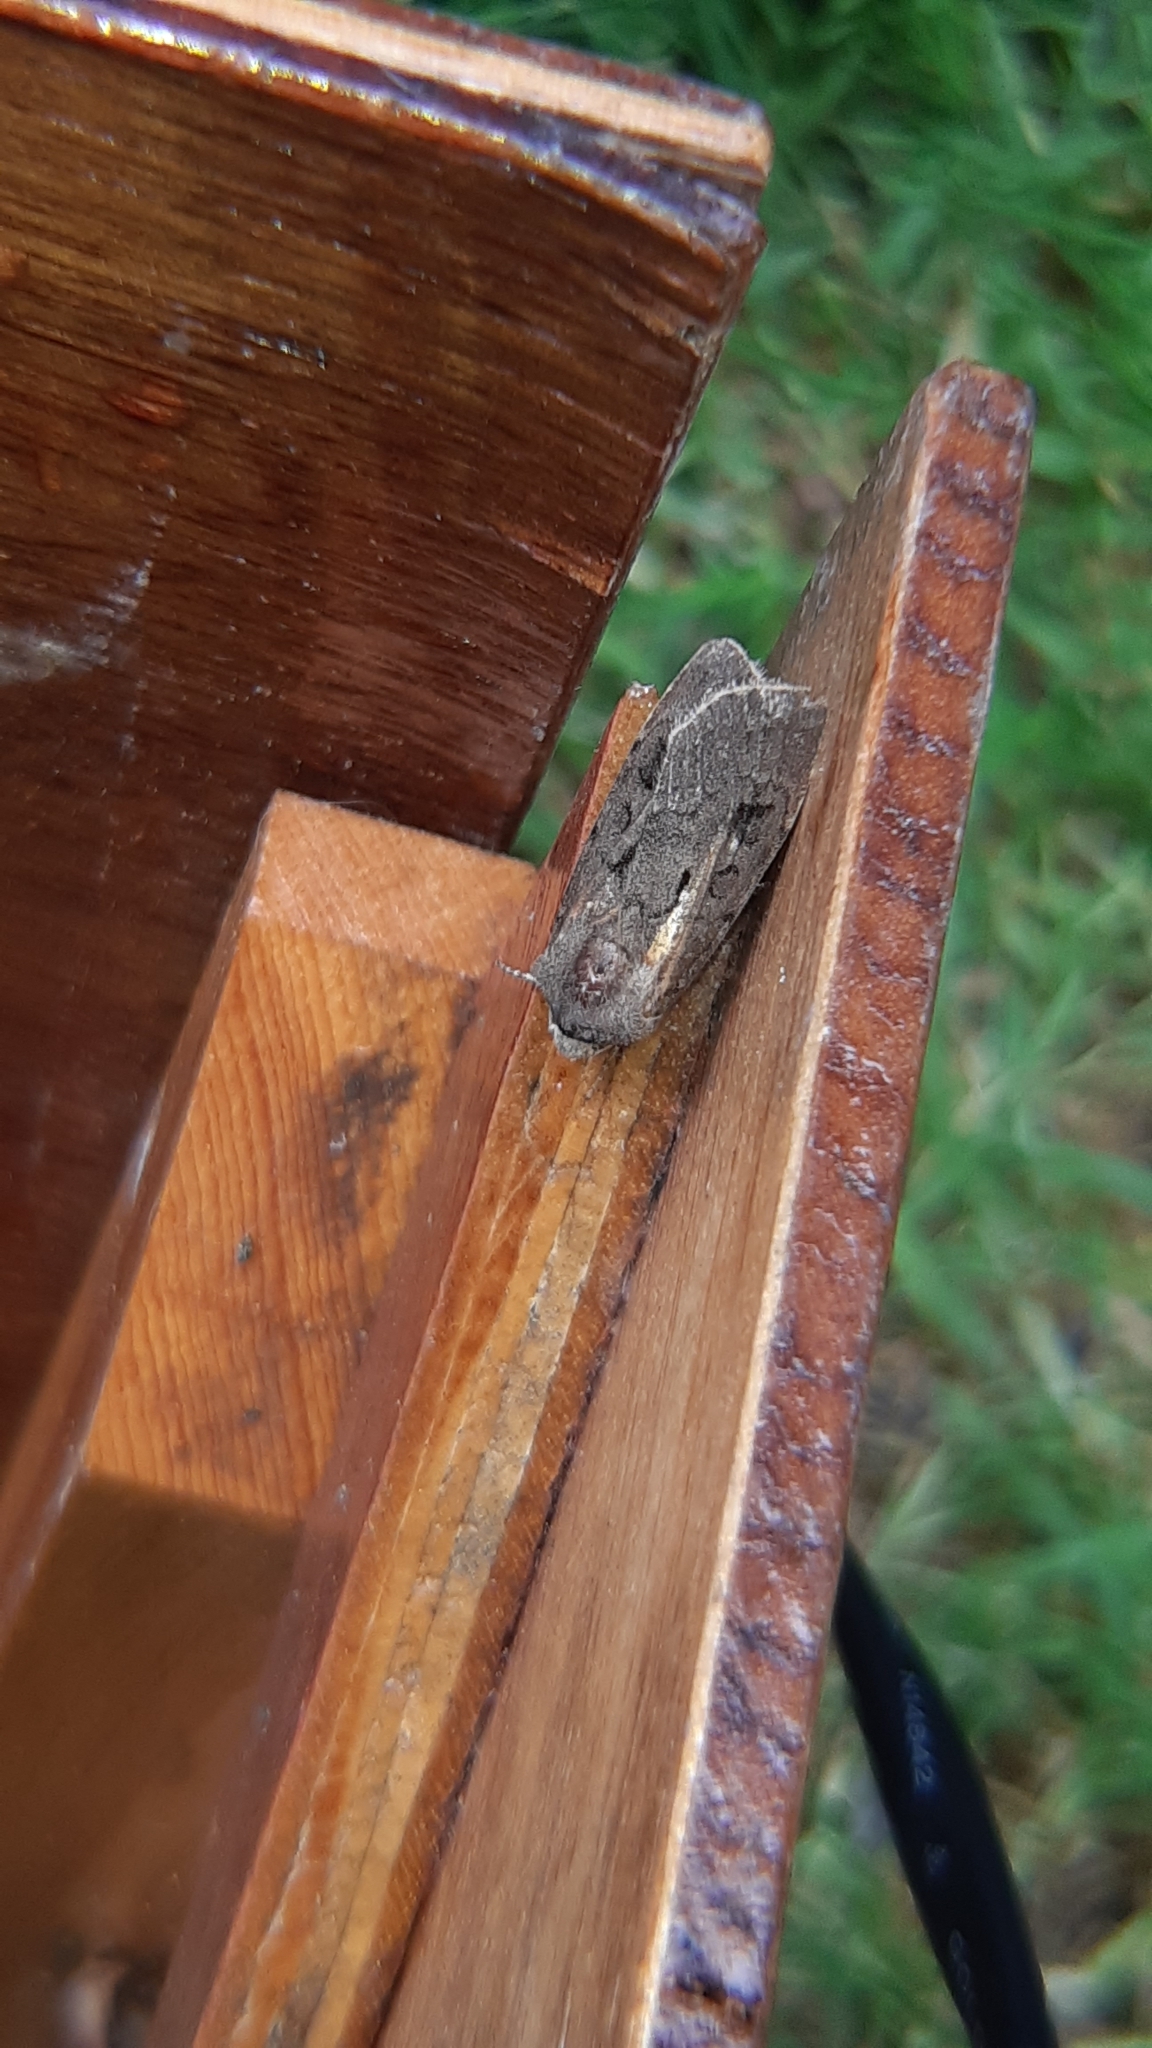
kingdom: Animalia
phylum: Arthropoda
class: Insecta
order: Lepidoptera
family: Noctuidae
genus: Agrotis
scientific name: Agrotis exclamationis
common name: Heart and dart
